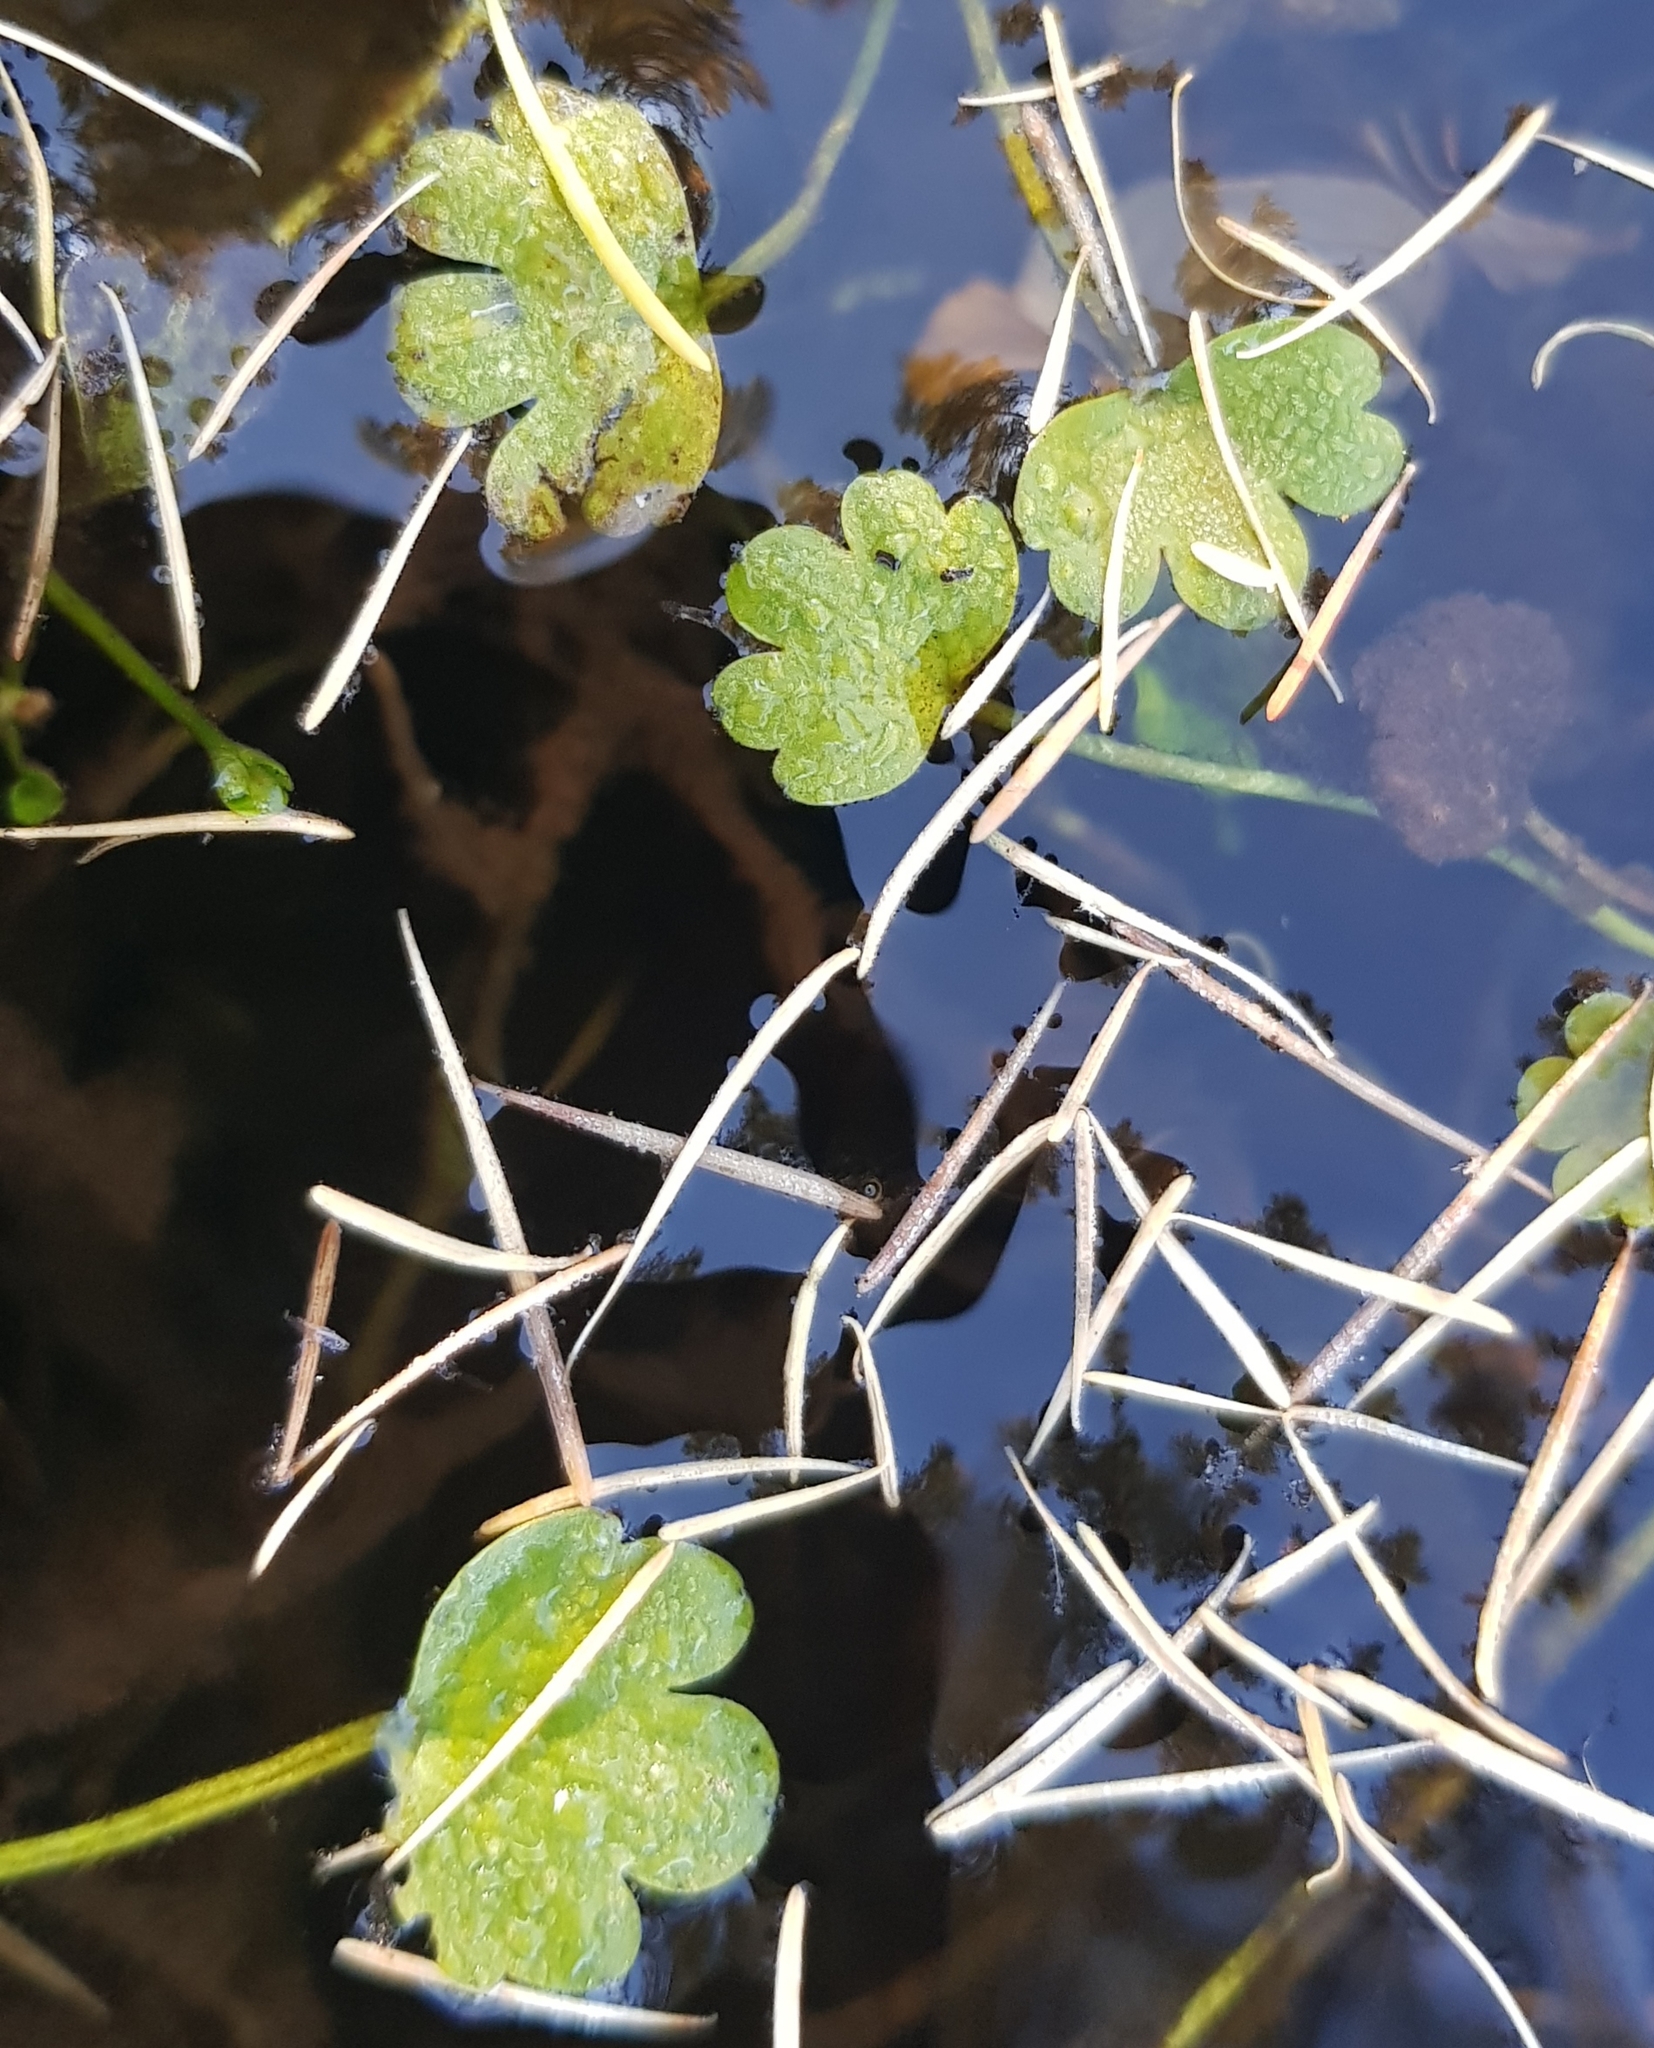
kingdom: Plantae
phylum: Tracheophyta
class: Magnoliopsida
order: Ranunculales
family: Ranunculaceae
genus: Ranunculus
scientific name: Ranunculus natans
